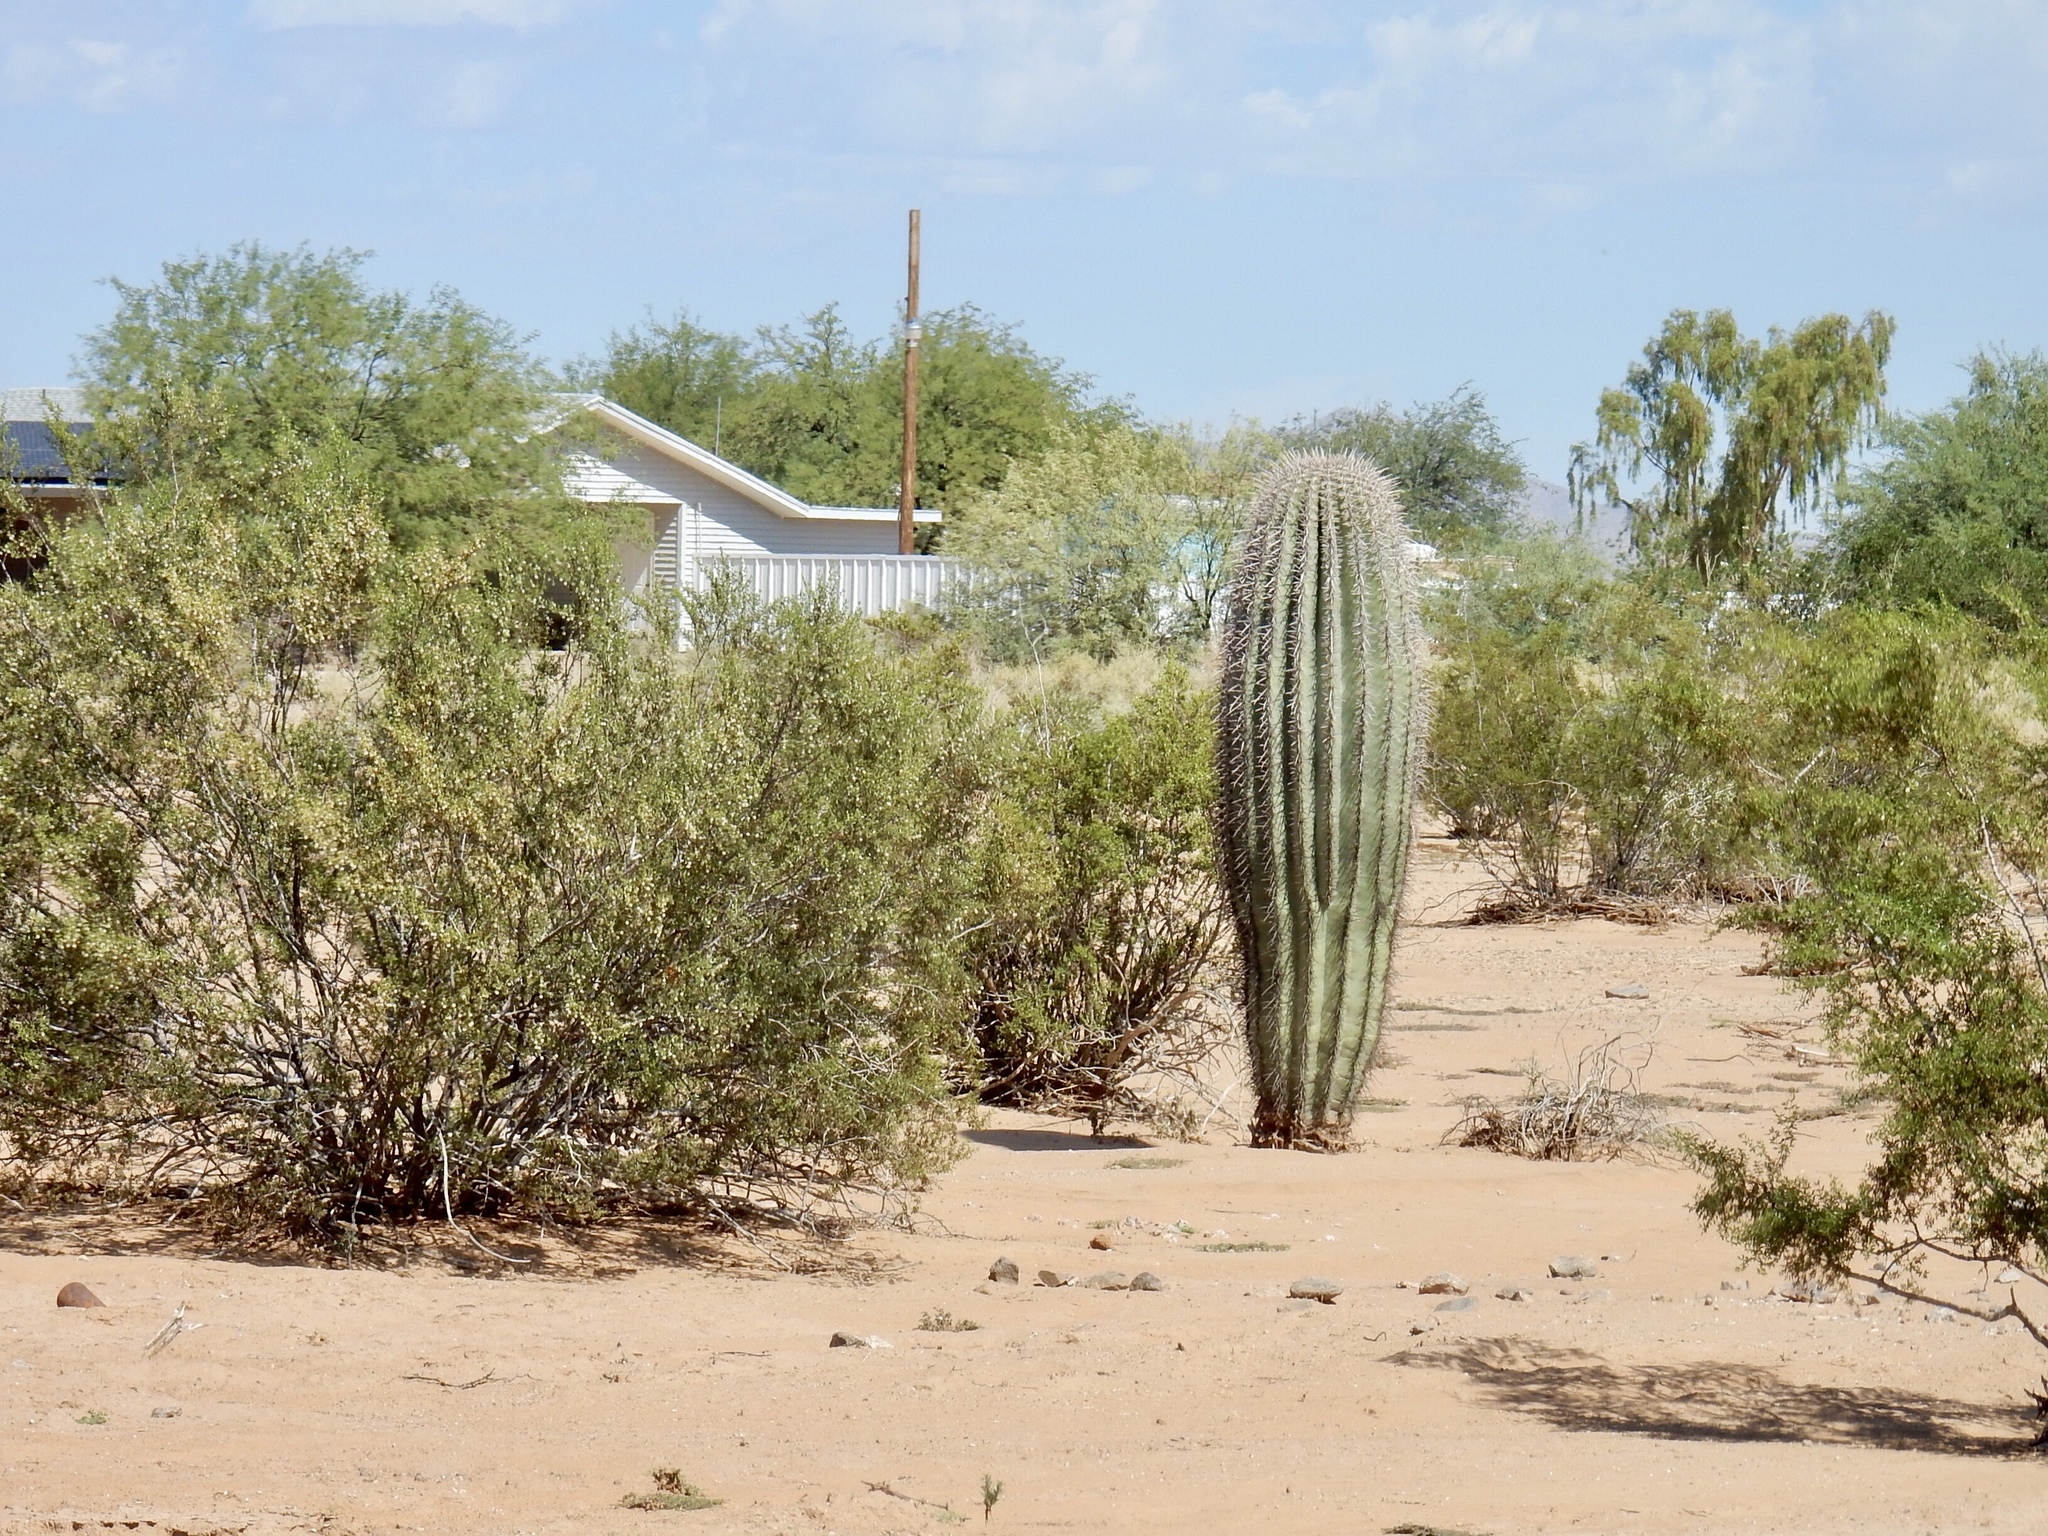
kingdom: Plantae
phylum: Tracheophyta
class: Magnoliopsida
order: Zygophyllales
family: Zygophyllaceae
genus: Larrea
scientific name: Larrea tridentata
